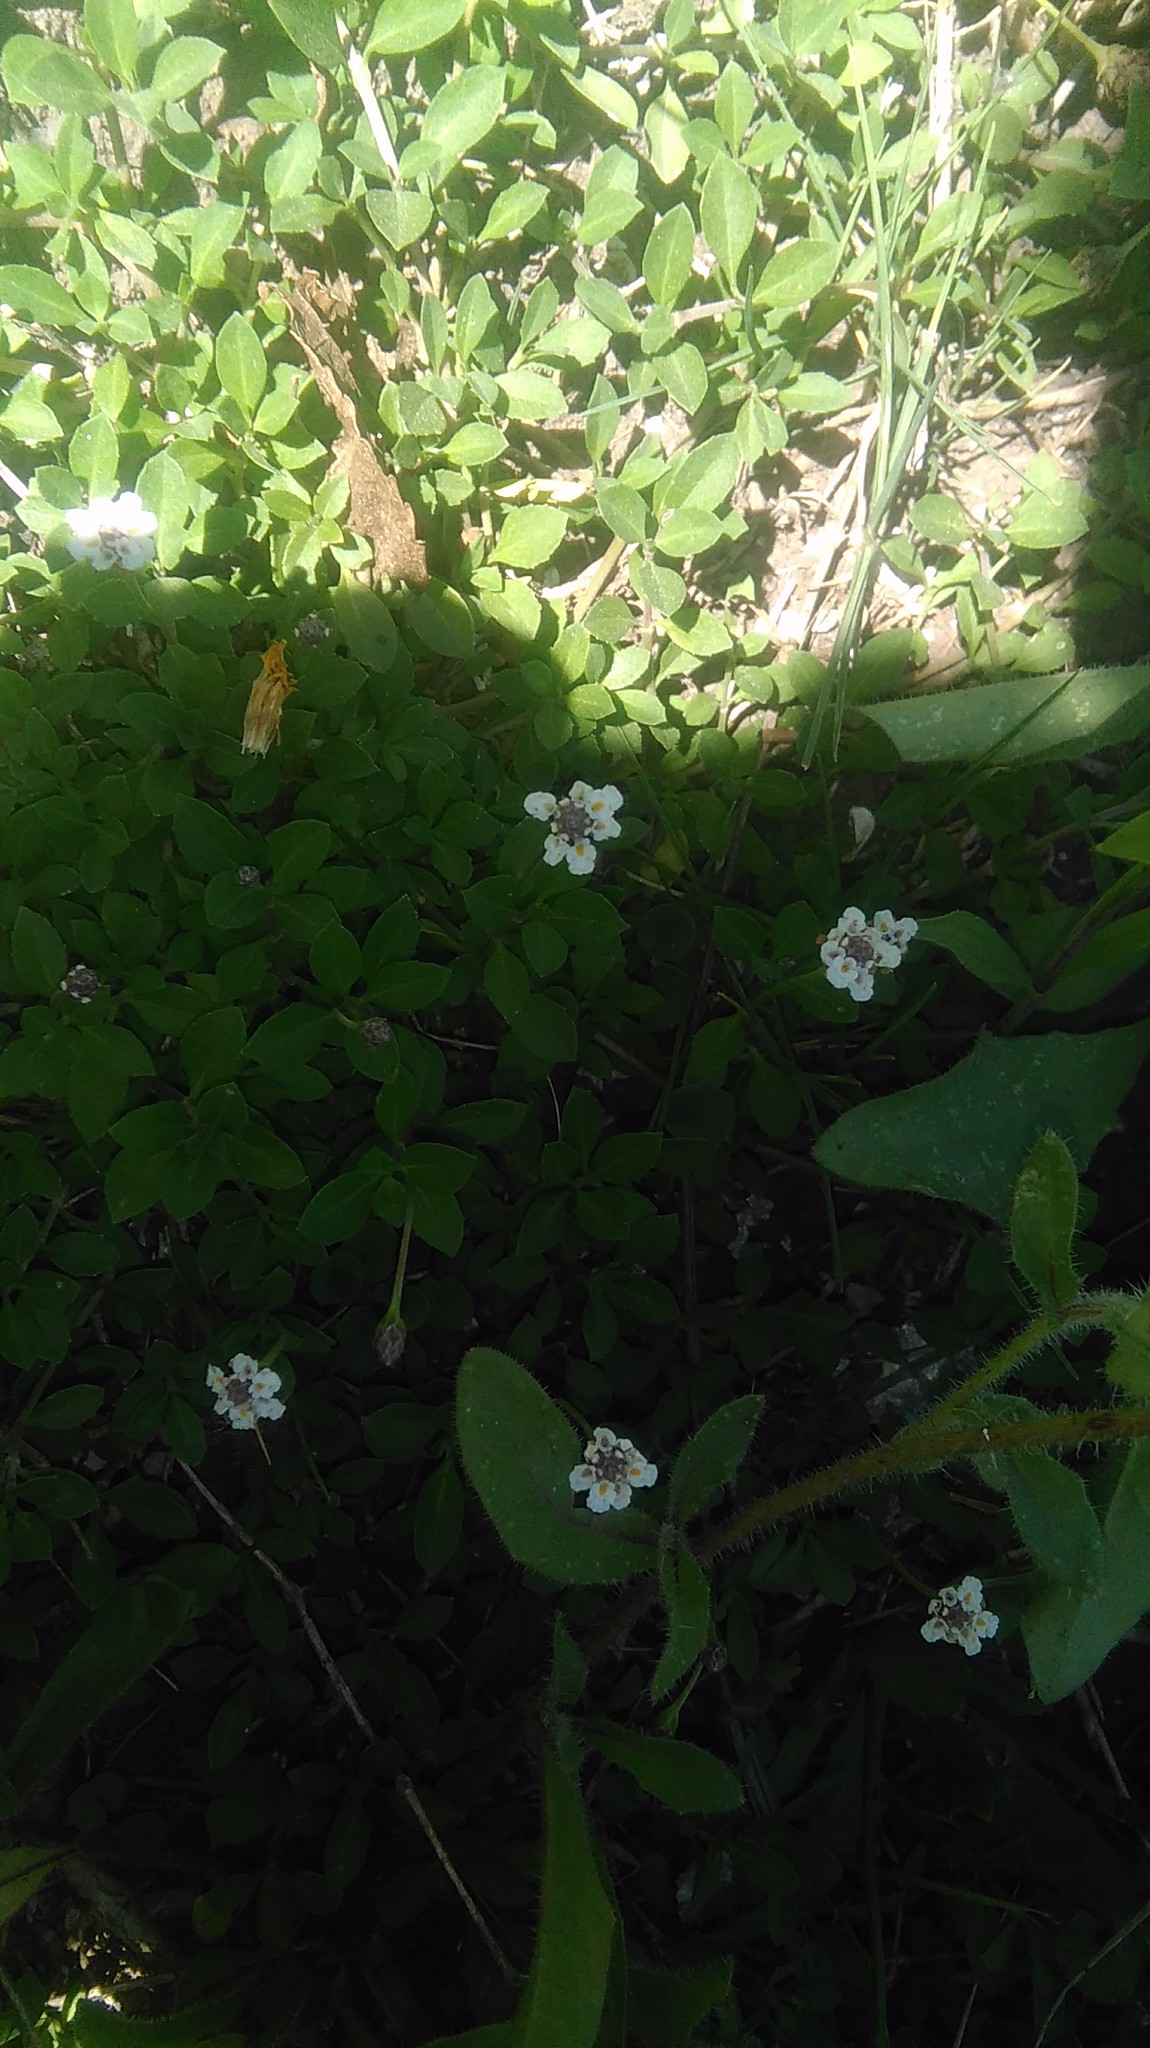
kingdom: Plantae
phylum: Tracheophyta
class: Magnoliopsida
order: Lamiales
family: Verbenaceae
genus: Phyla
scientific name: Phyla nodiflora
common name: Frogfruit
